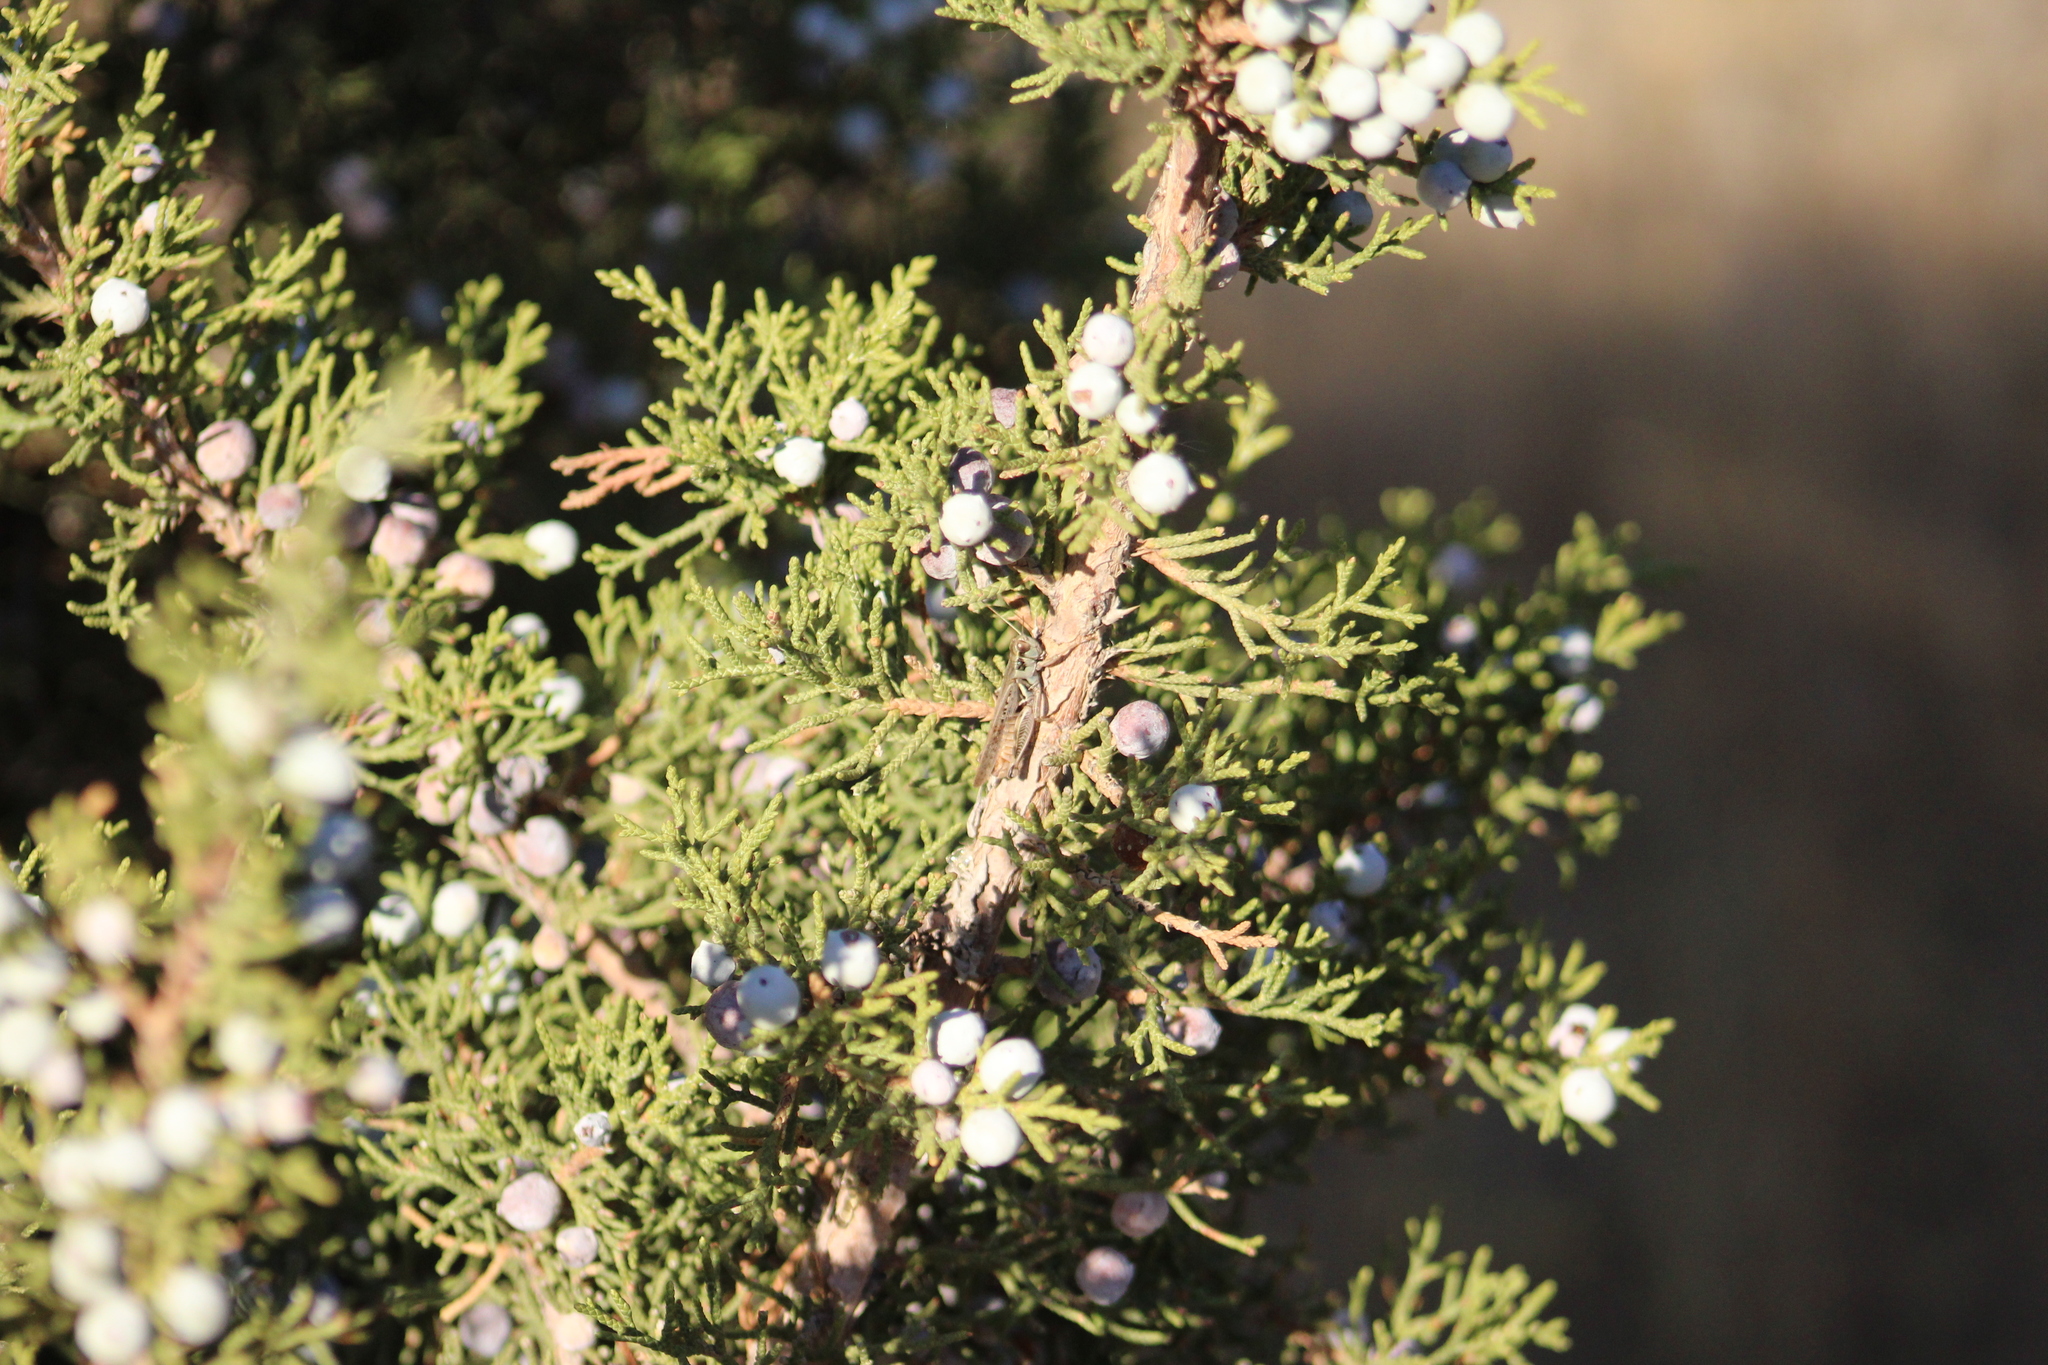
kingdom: Plantae
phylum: Tracheophyta
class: Pinopsida
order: Pinales
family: Cupressaceae
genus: Juniperus
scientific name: Juniperus scopulorum
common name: Rocky mountain juniper
